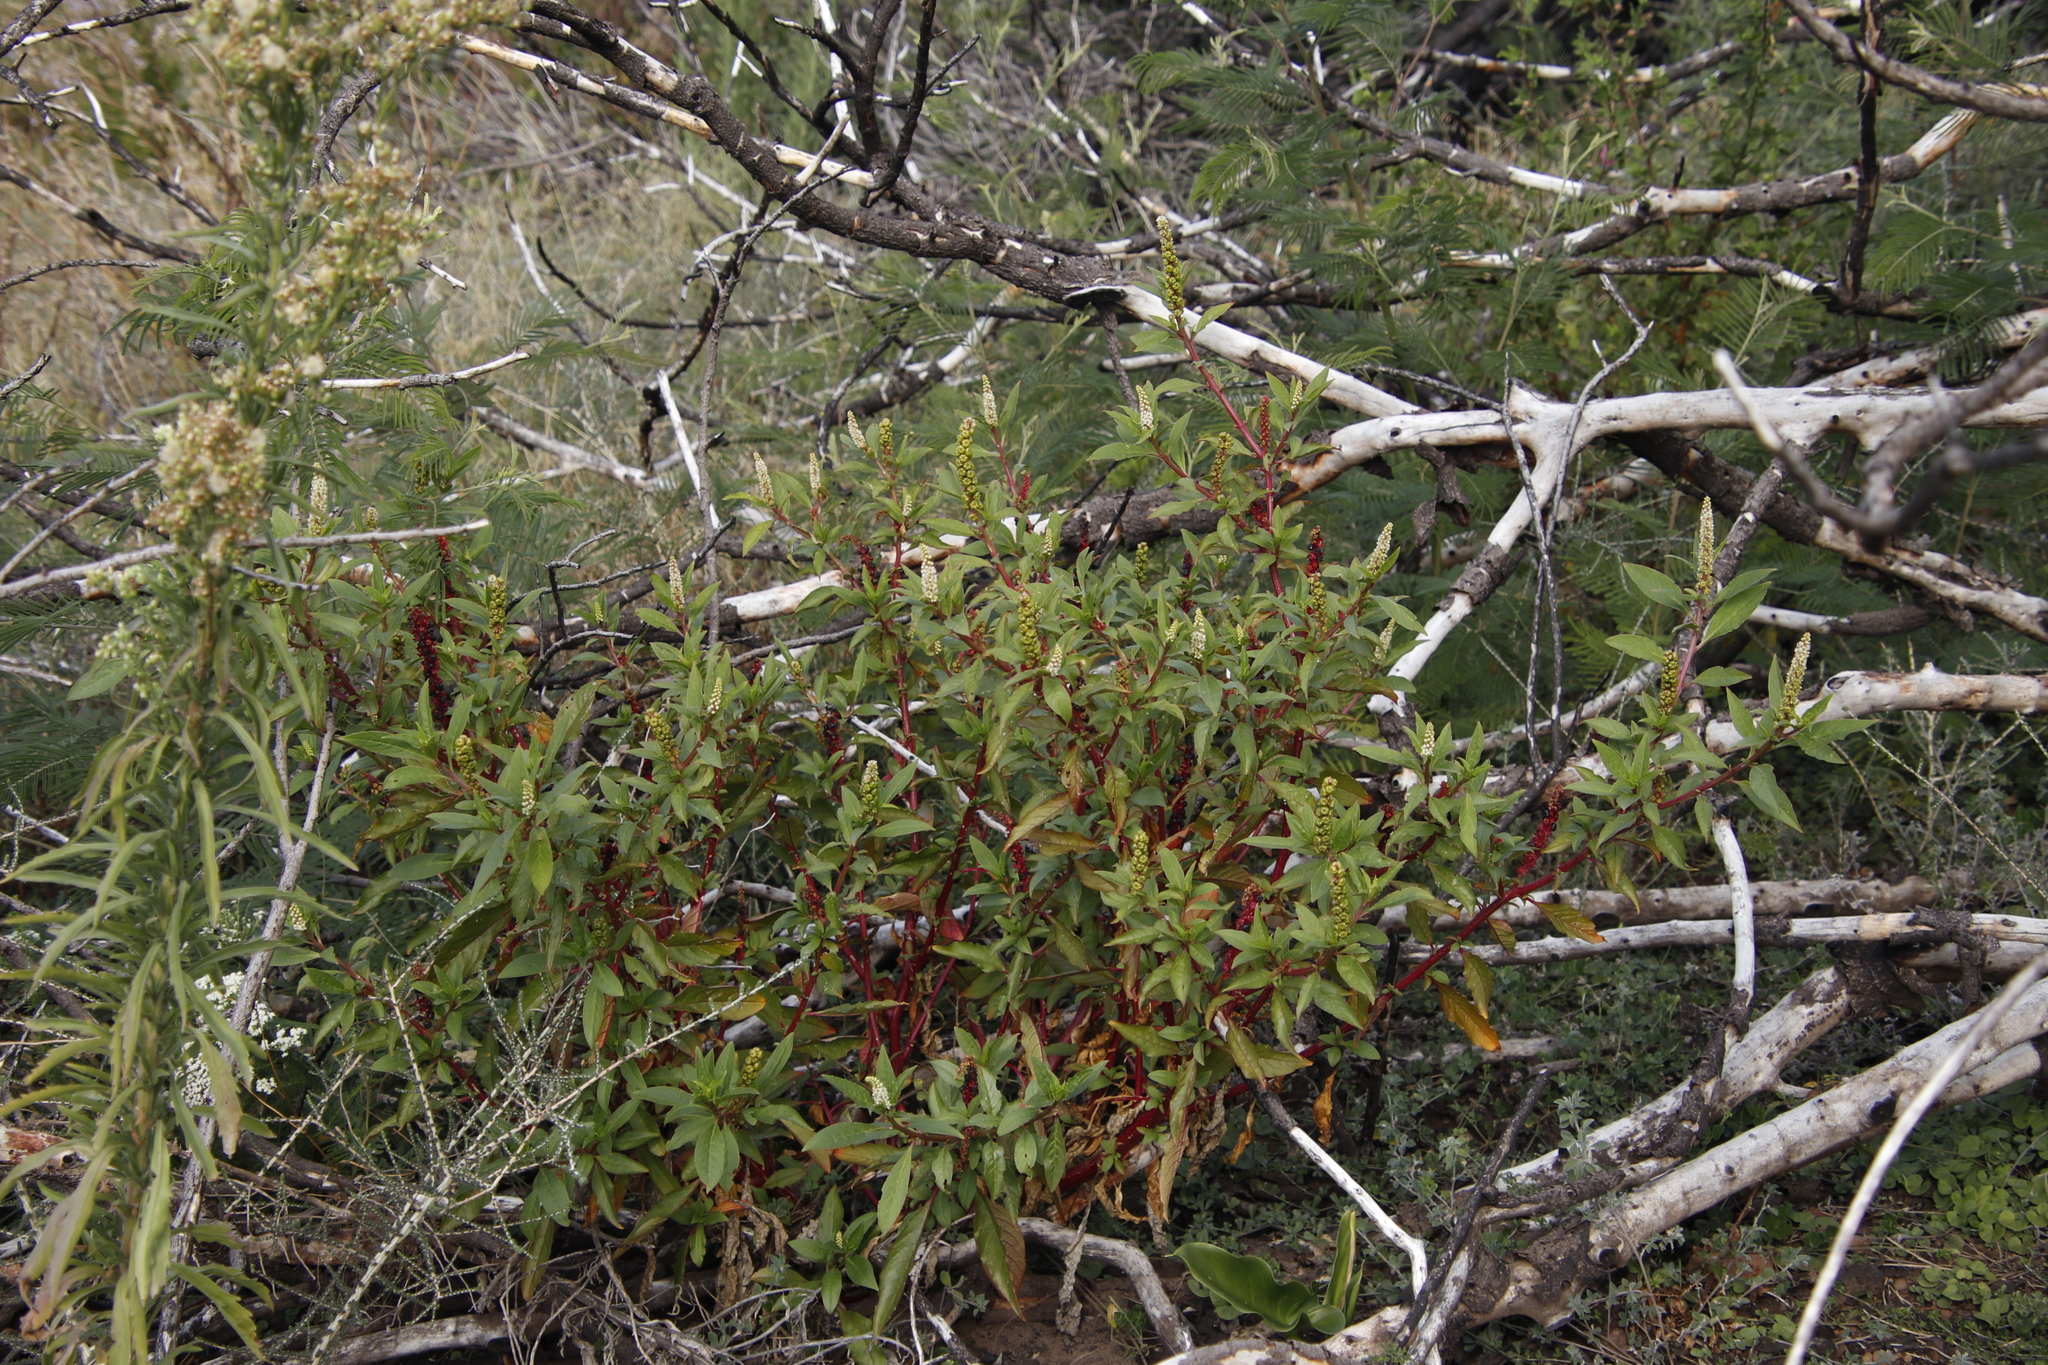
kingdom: Plantae
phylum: Tracheophyta
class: Magnoliopsida
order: Caryophyllales
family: Phytolaccaceae
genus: Phytolacca
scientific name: Phytolacca icosandra
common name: Button pokeweed
